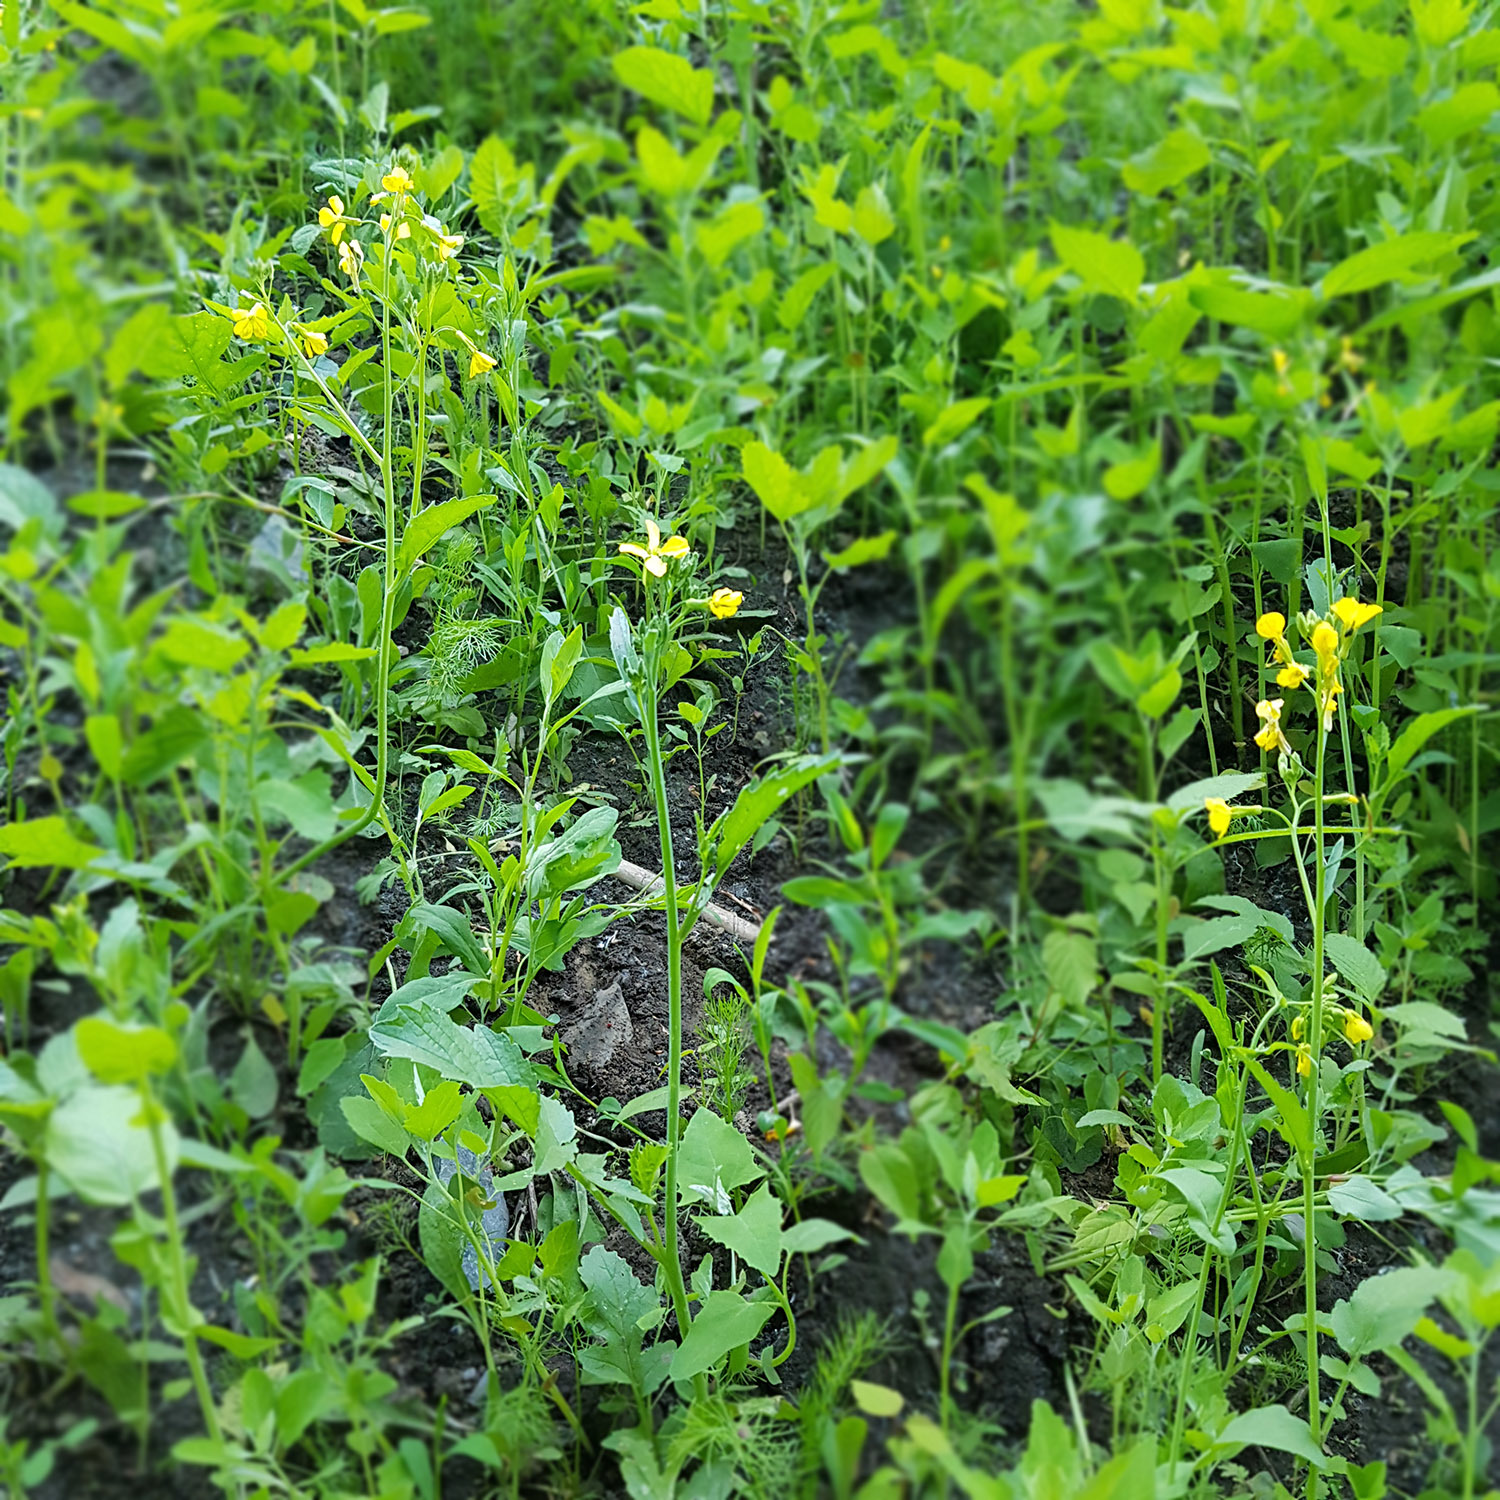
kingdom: Plantae
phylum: Tracheophyta
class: Magnoliopsida
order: Brassicales
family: Brassicaceae
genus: Raphanus
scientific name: Raphanus raphanistrum
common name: Wild radish
